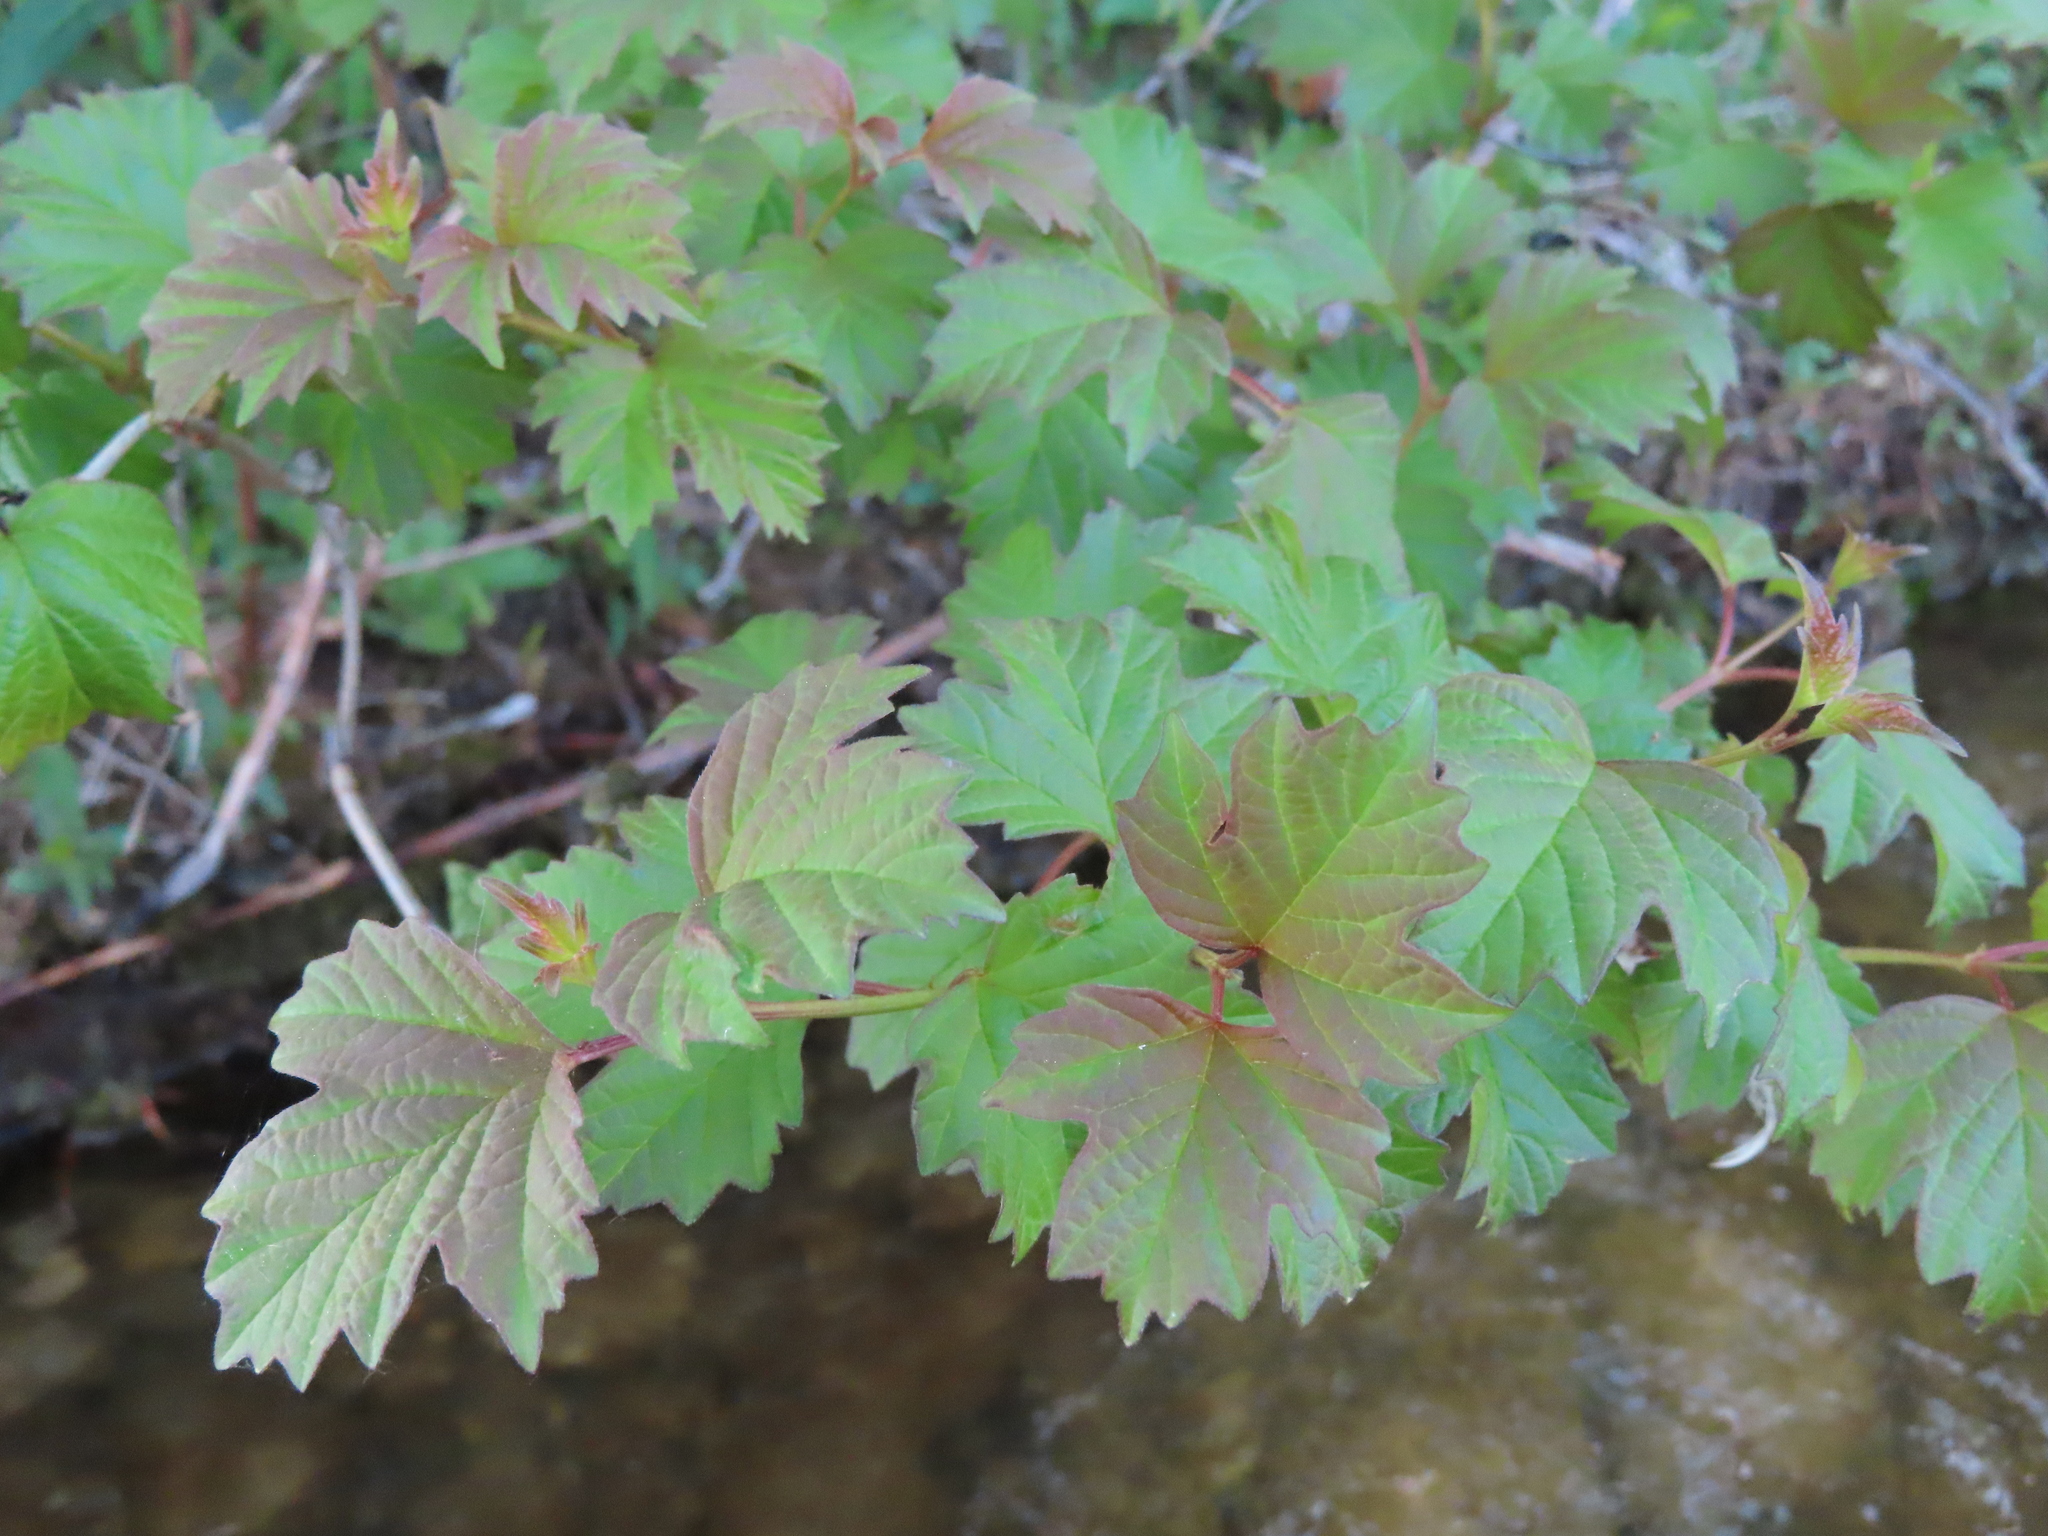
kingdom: Plantae
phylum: Tracheophyta
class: Magnoliopsida
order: Dipsacales
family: Viburnaceae
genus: Viburnum
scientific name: Viburnum opulus
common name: Guelder-rose
